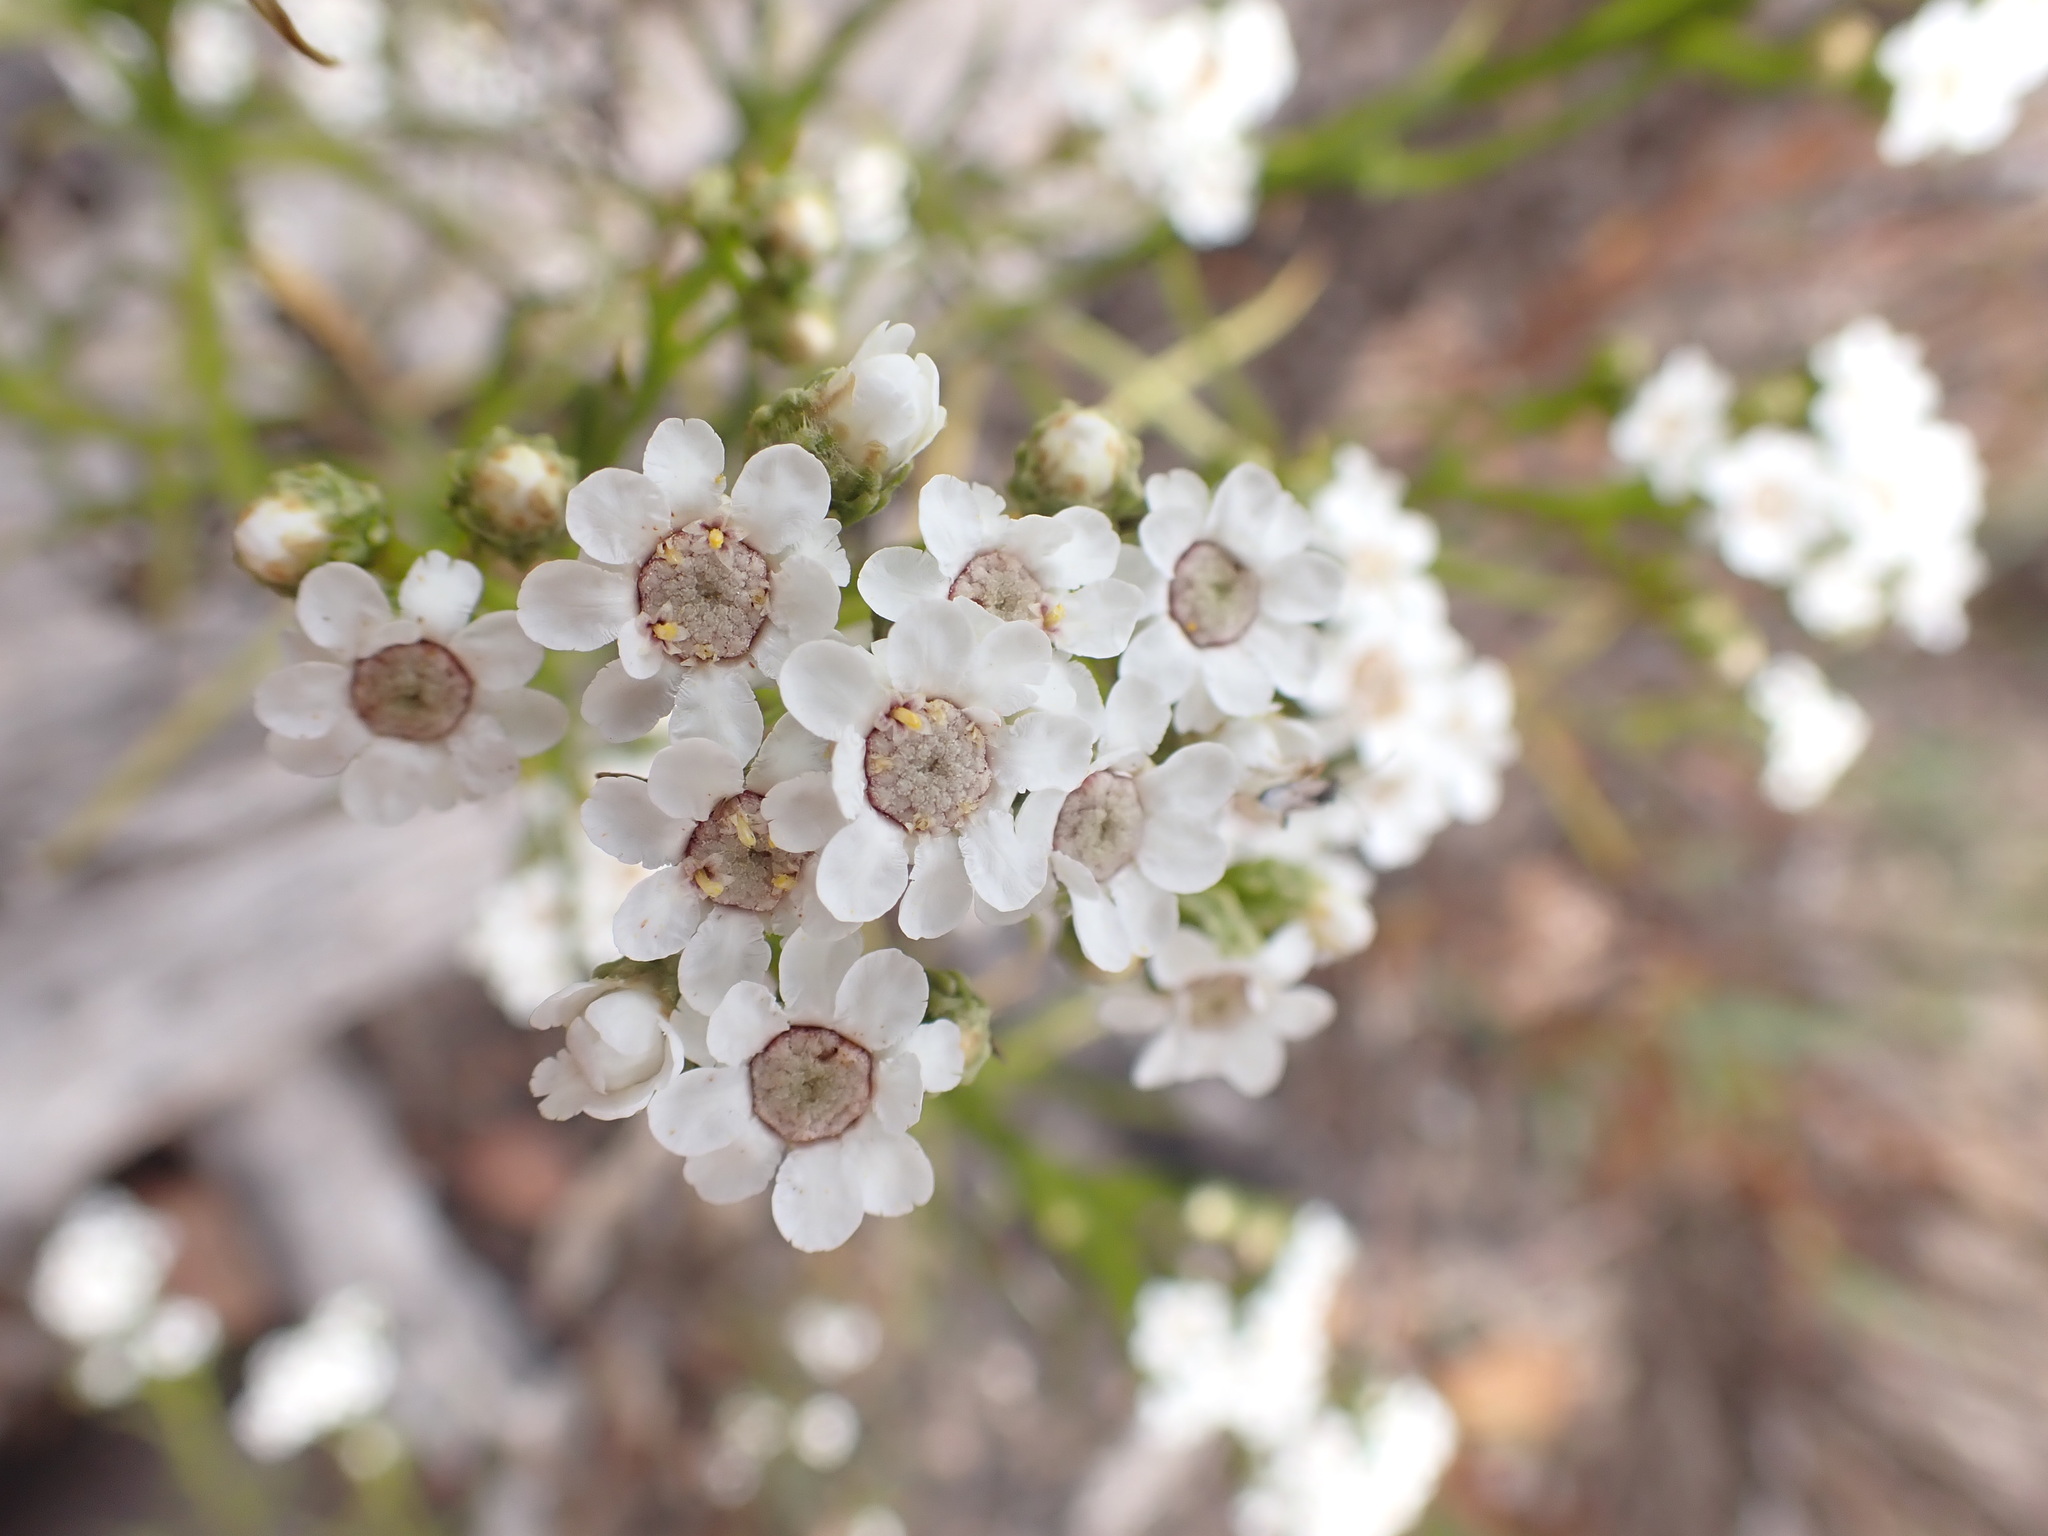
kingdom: Plantae
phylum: Tracheophyta
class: Magnoliopsida
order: Asterales
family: Asteraceae
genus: Ixodia
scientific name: Ixodia achillaeoides
